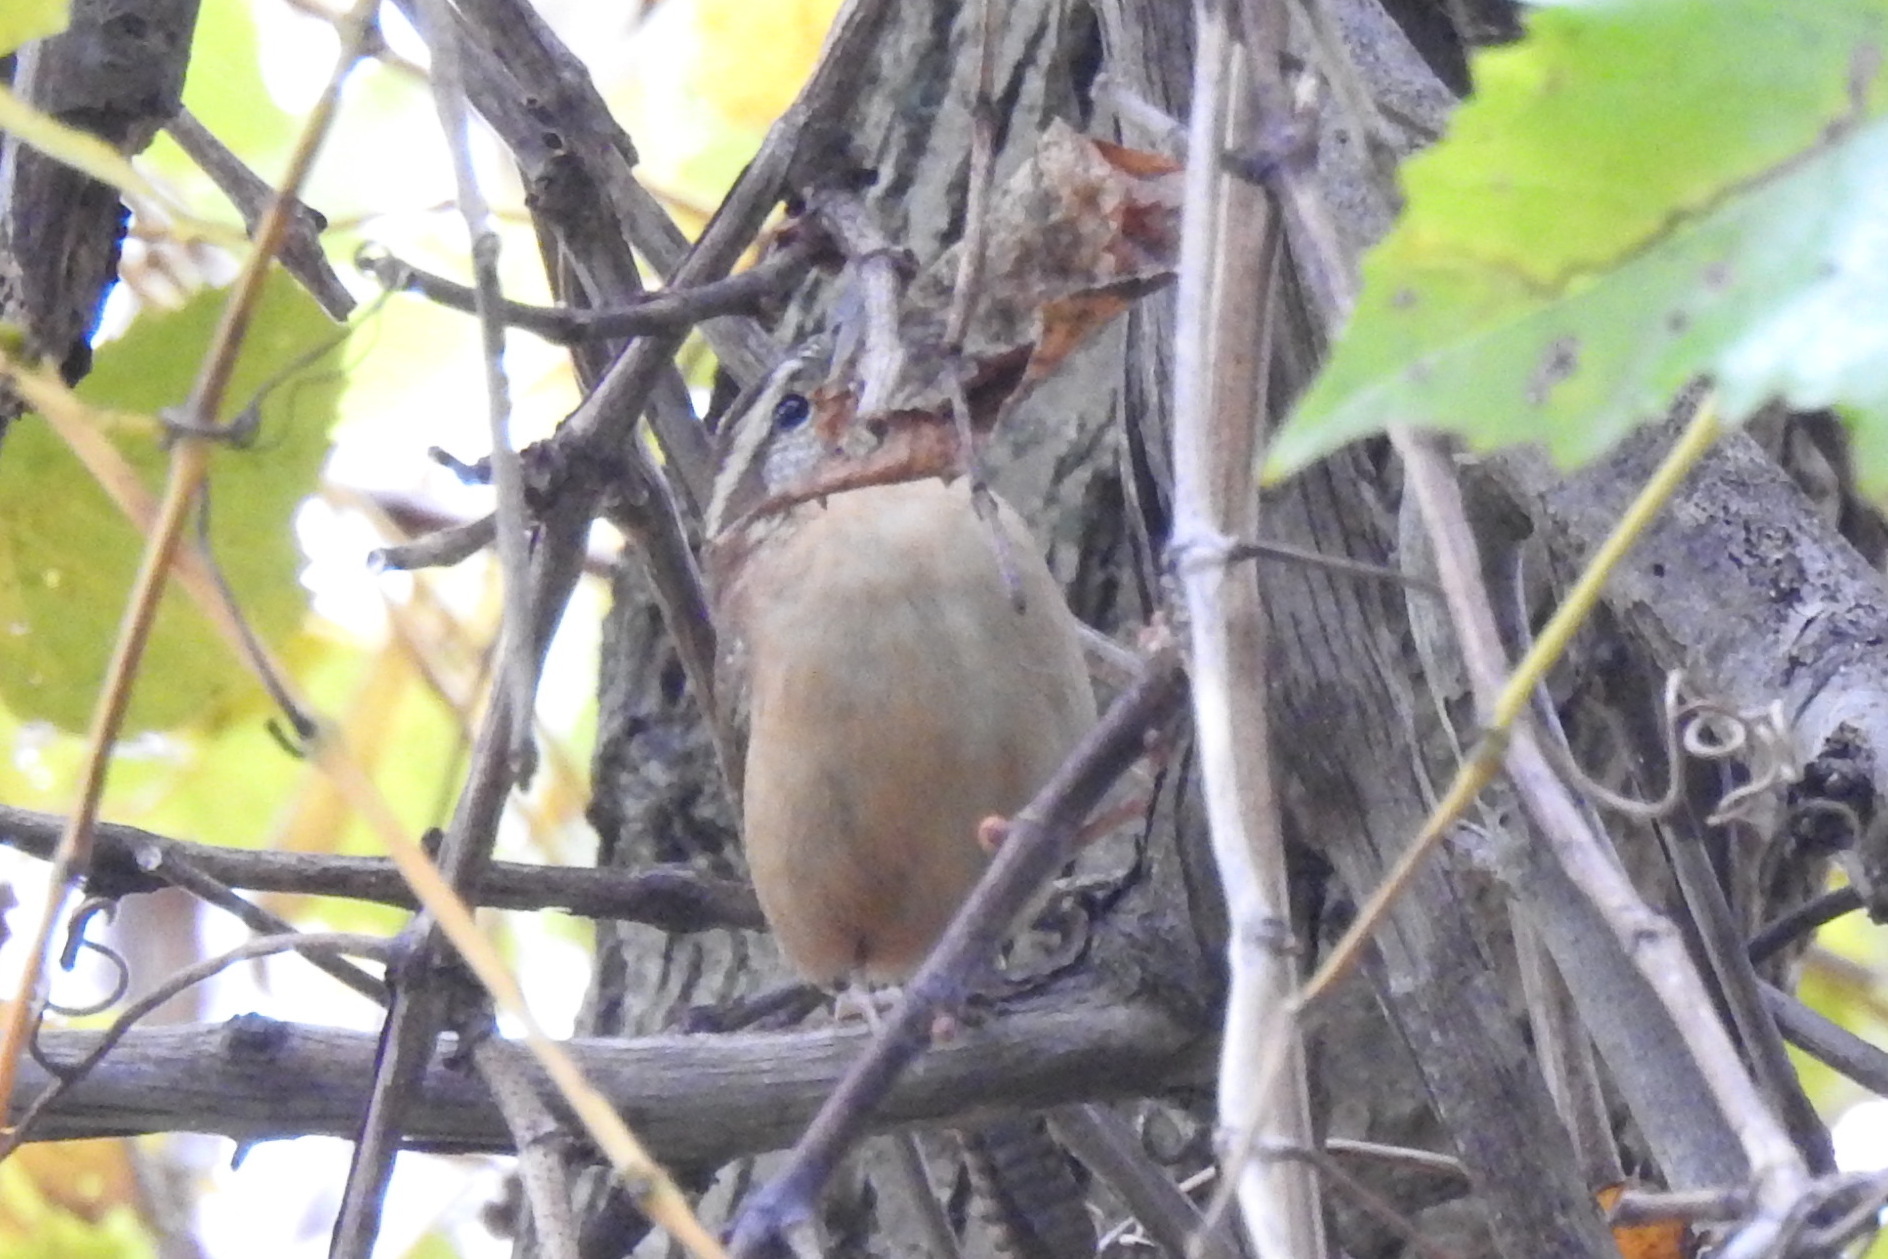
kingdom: Animalia
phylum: Chordata
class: Aves
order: Passeriformes
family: Troglodytidae
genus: Thryothorus
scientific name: Thryothorus ludovicianus
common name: Carolina wren
